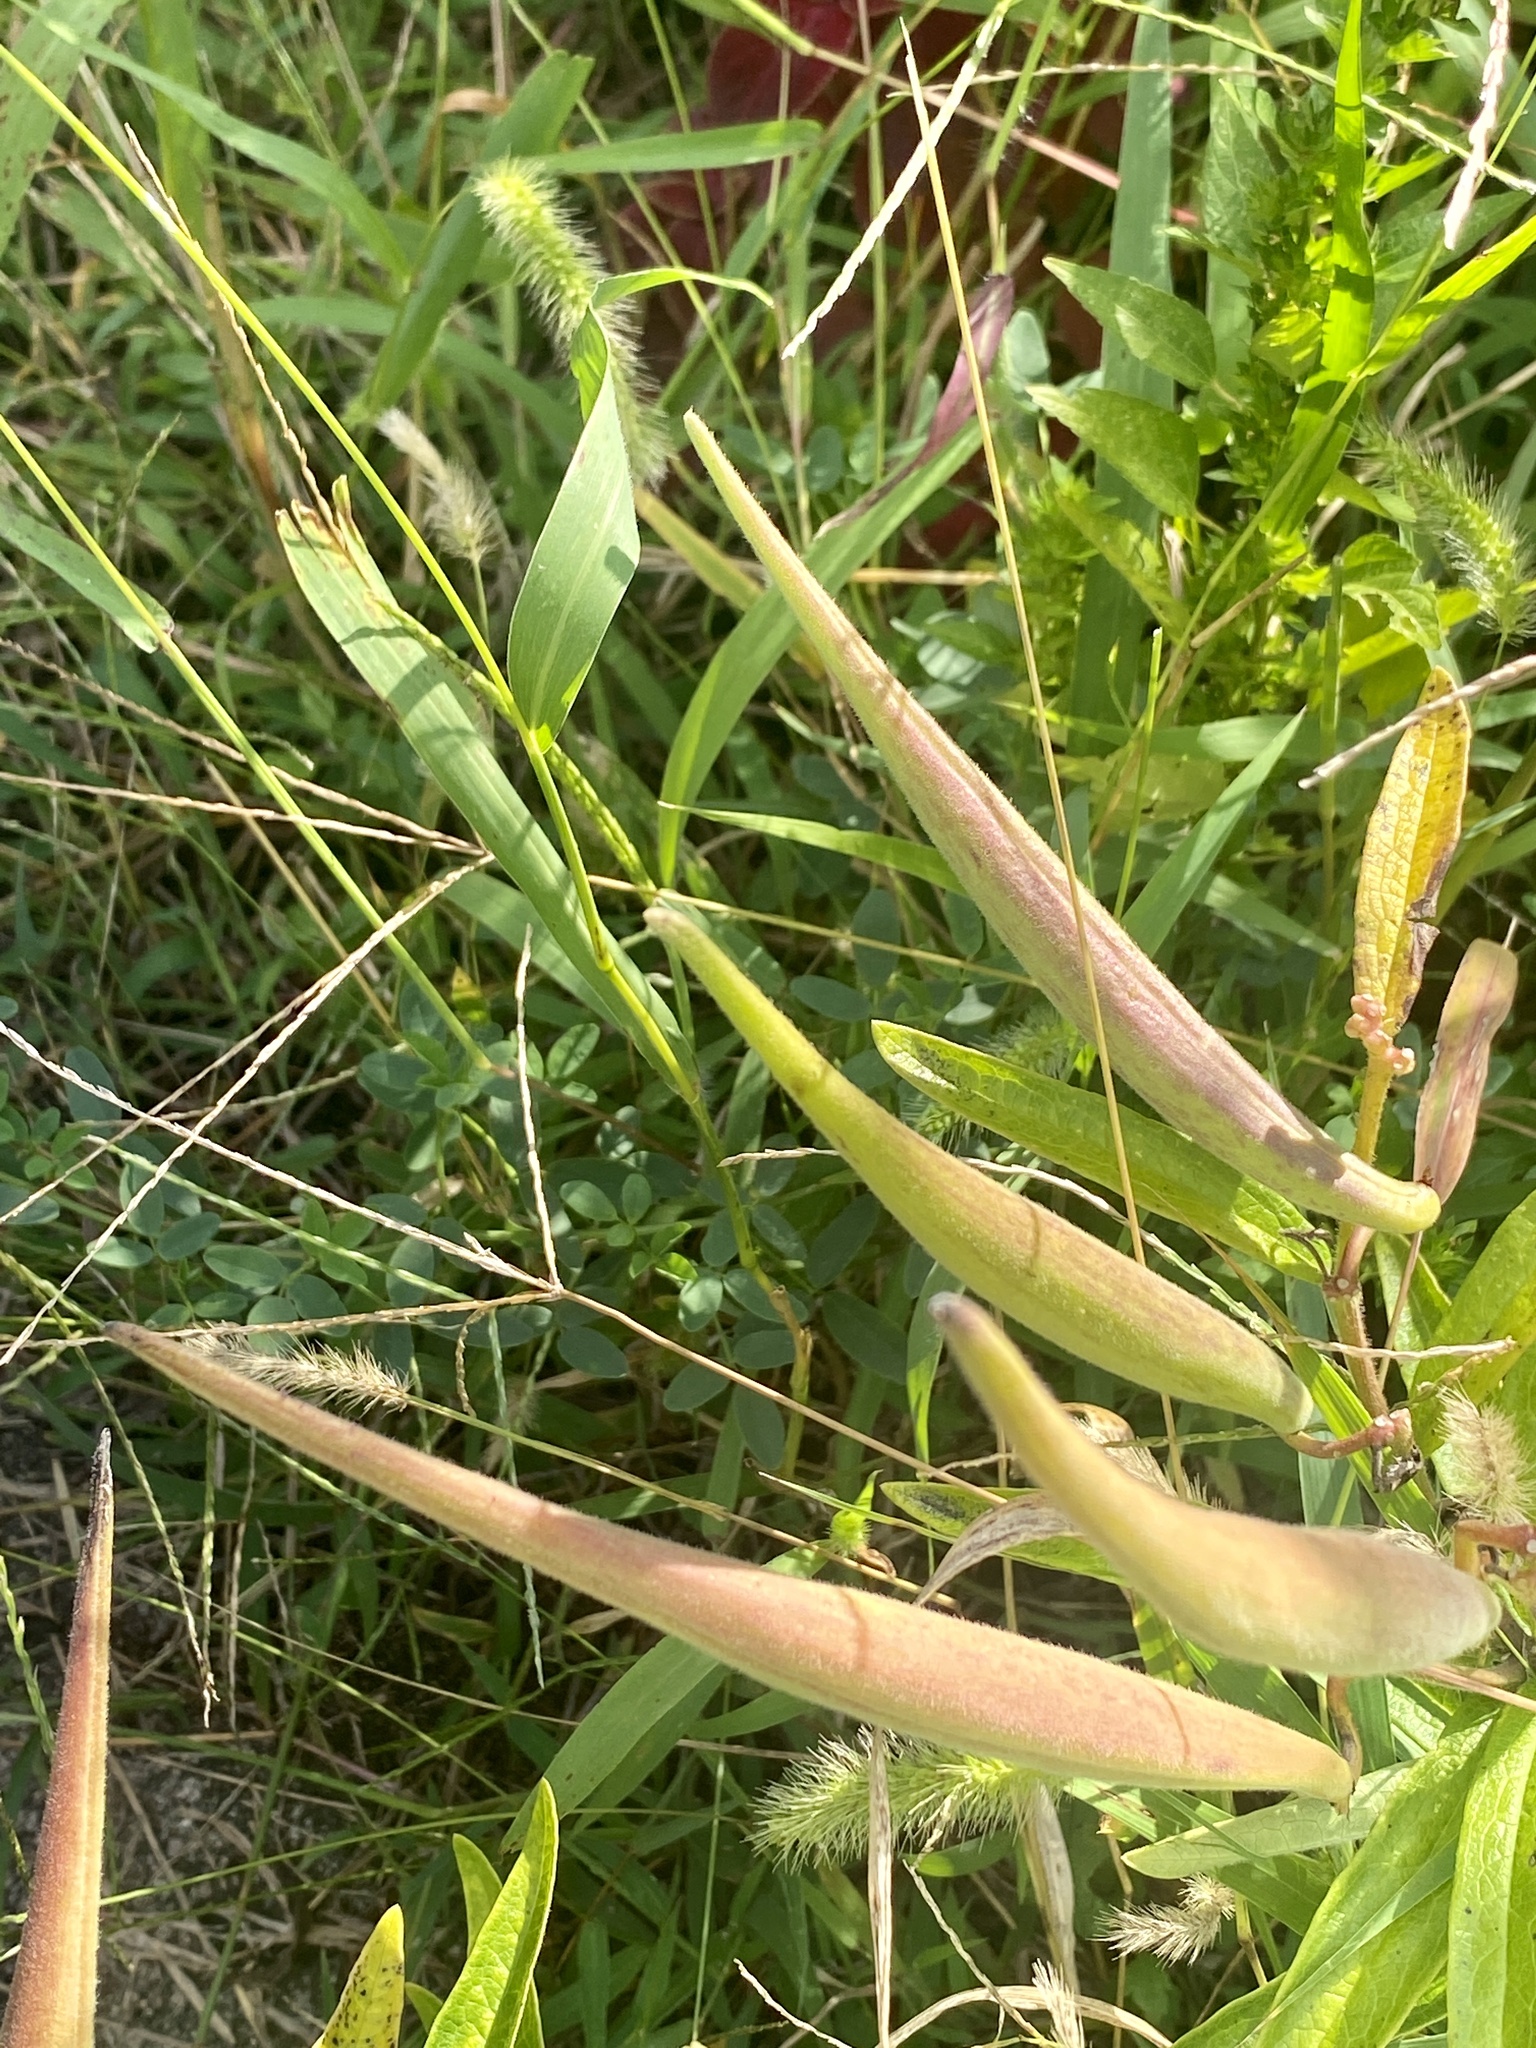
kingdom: Plantae
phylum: Tracheophyta
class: Magnoliopsida
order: Gentianales
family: Apocynaceae
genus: Asclepias
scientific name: Asclepias tuberosa
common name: Butterfly milkweed
